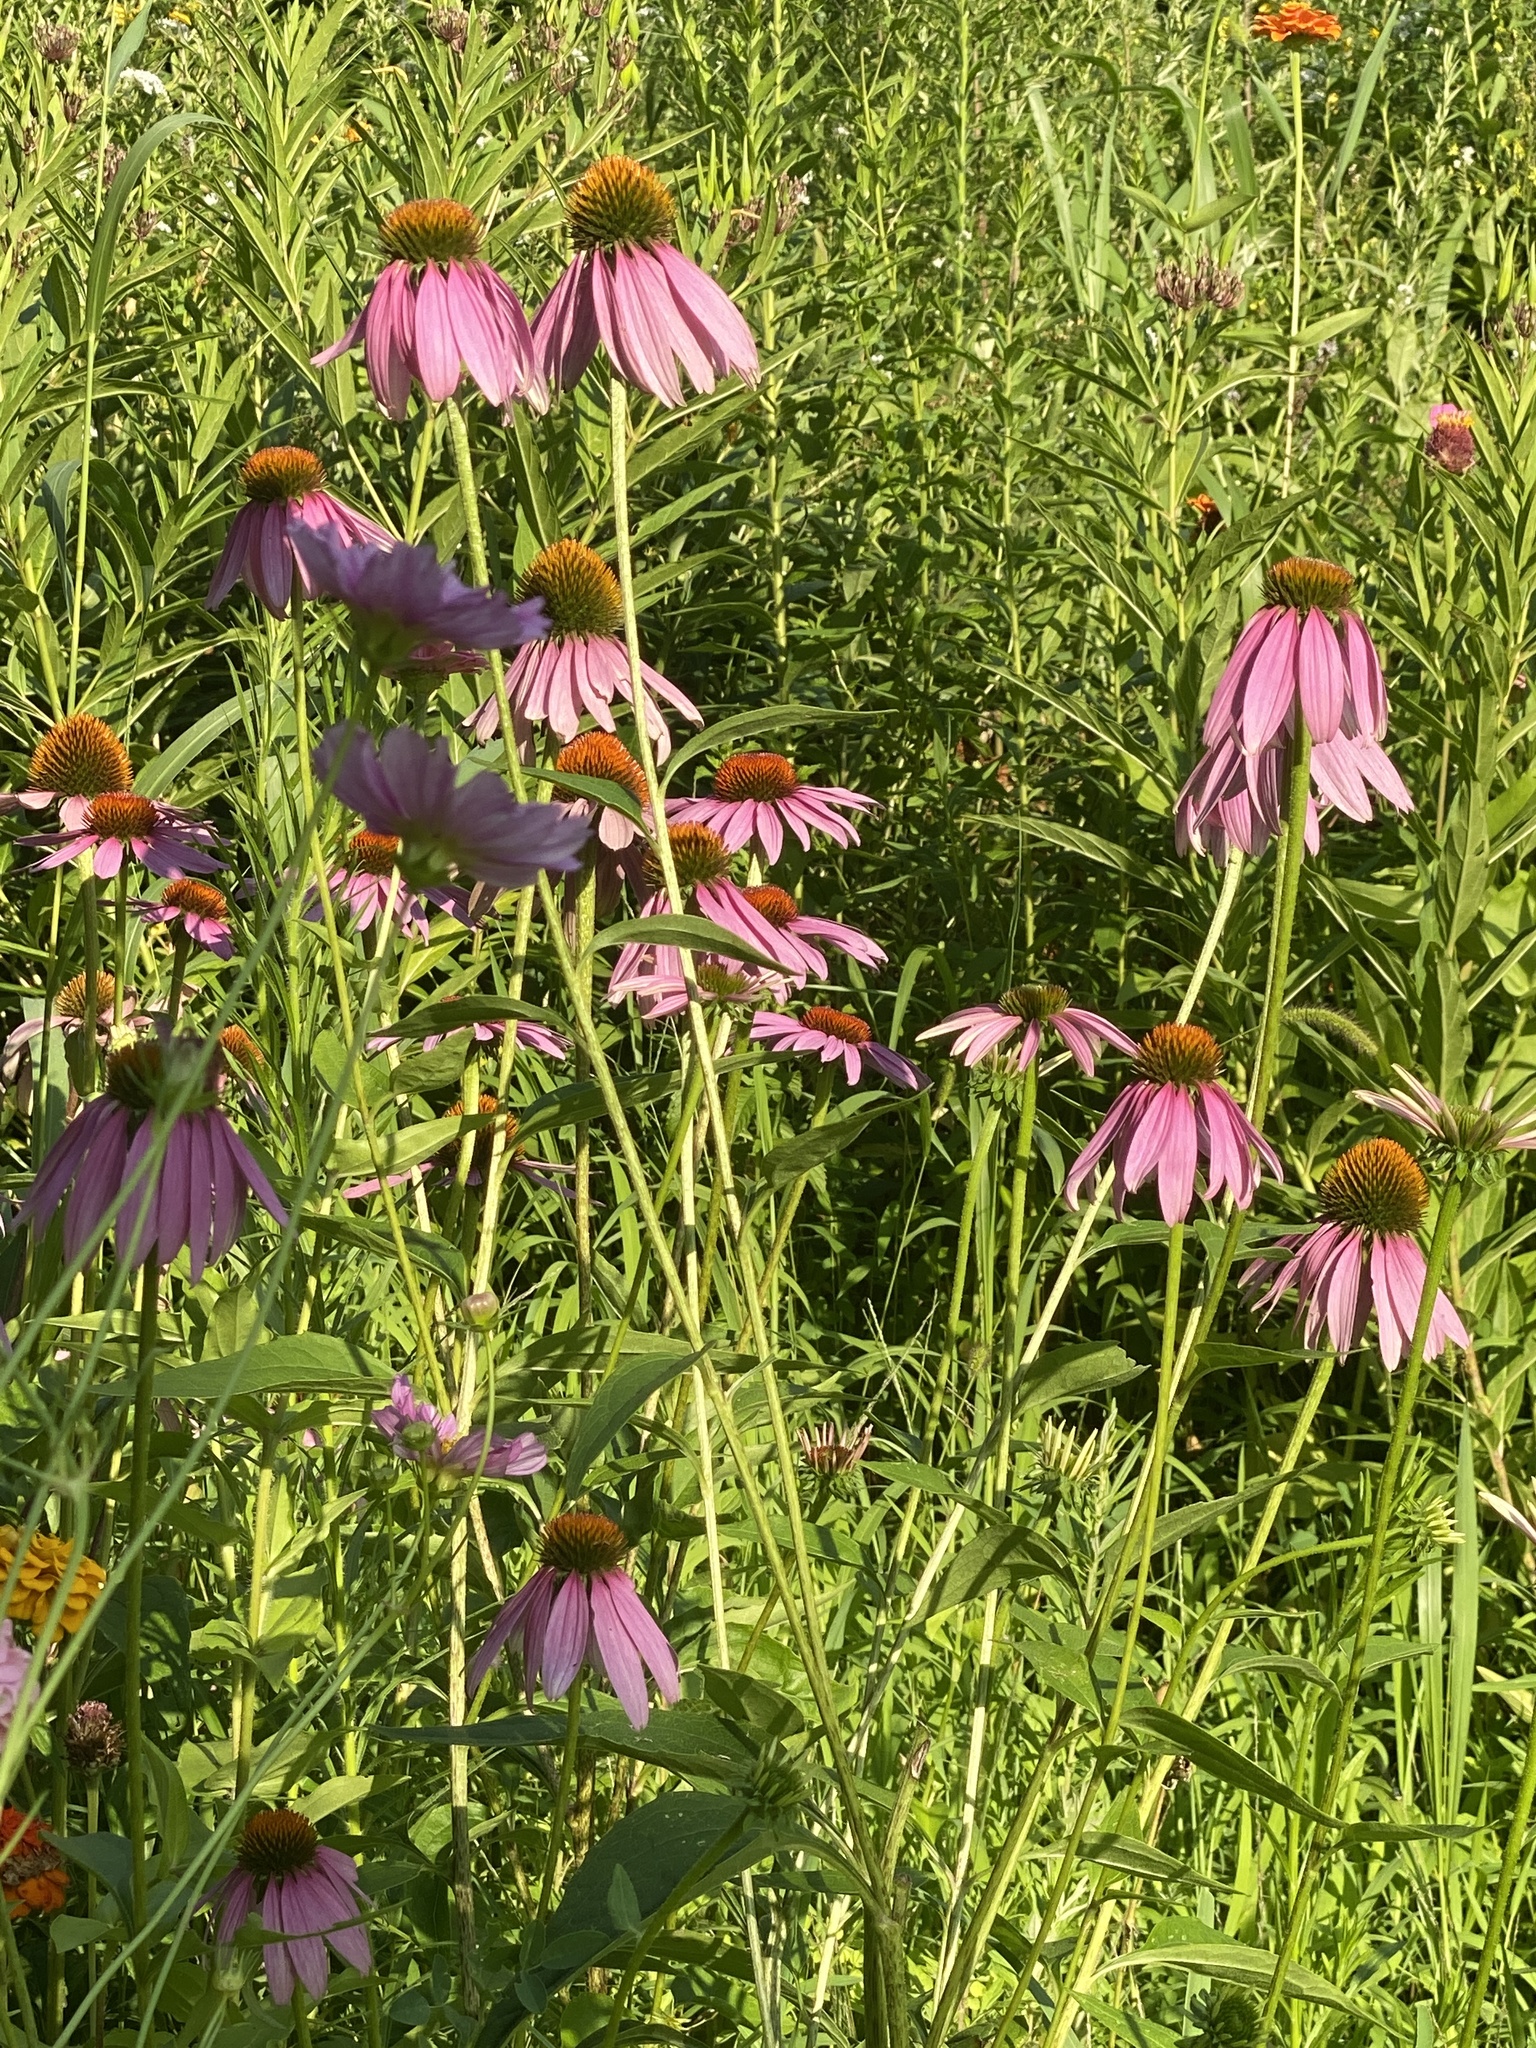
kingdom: Plantae
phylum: Tracheophyta
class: Magnoliopsida
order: Asterales
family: Asteraceae
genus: Echinacea
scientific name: Echinacea purpurea
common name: Broad-leaved purple coneflower
